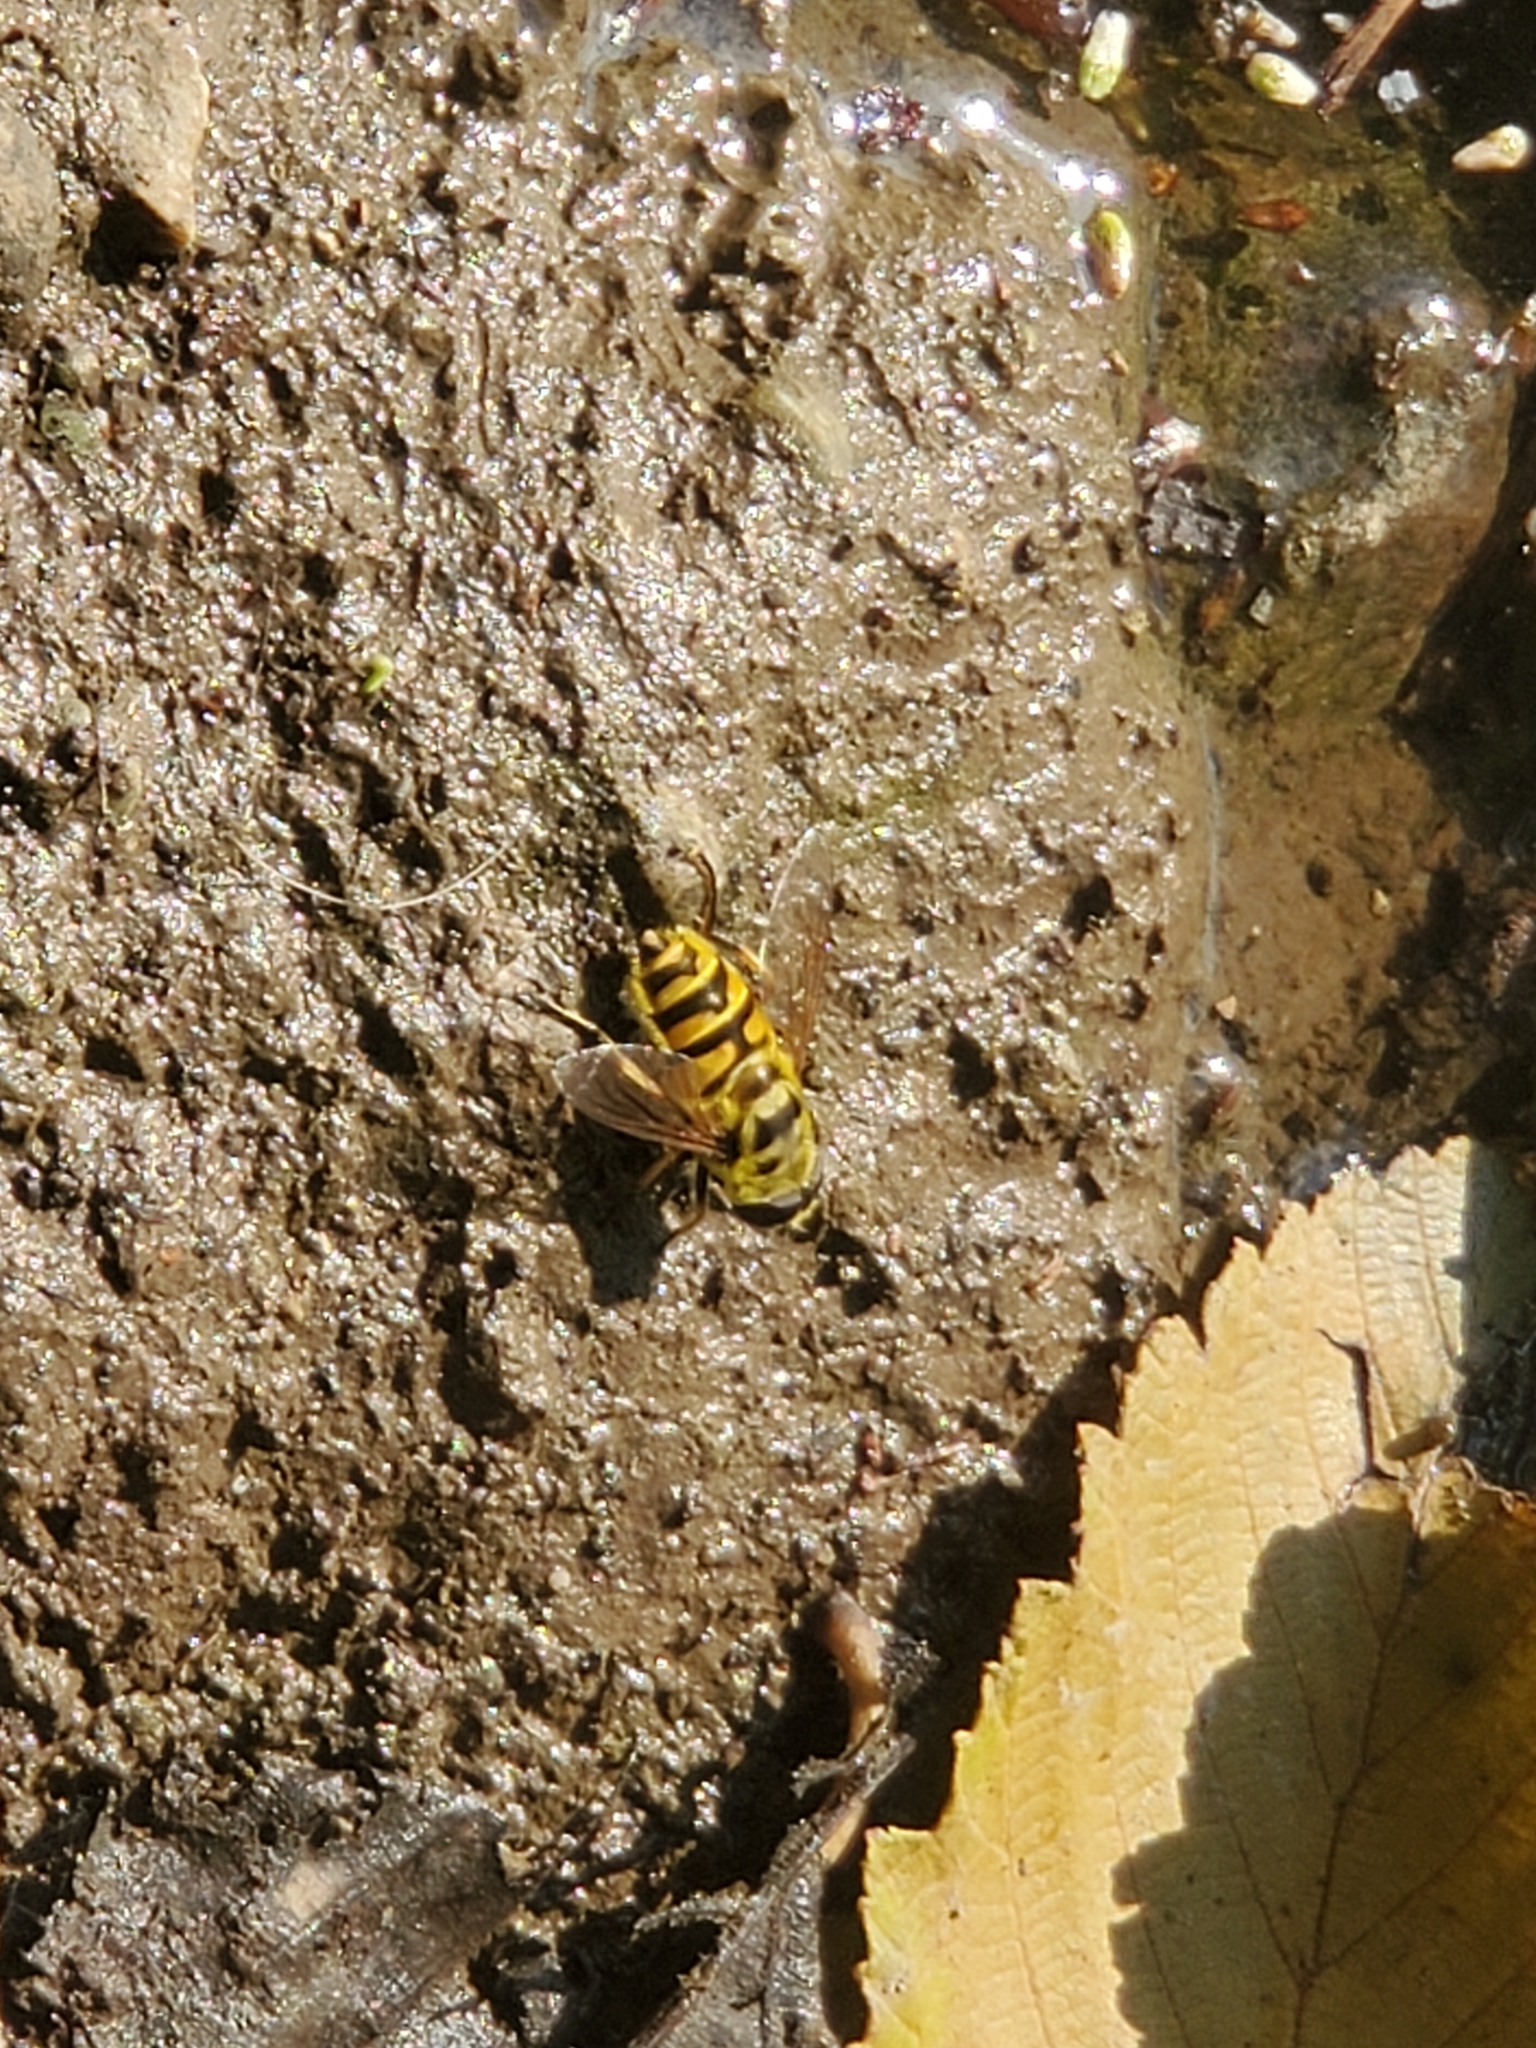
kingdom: Animalia
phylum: Arthropoda
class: Insecta
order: Diptera
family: Syrphidae
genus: Myathropa
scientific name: Myathropa florea
